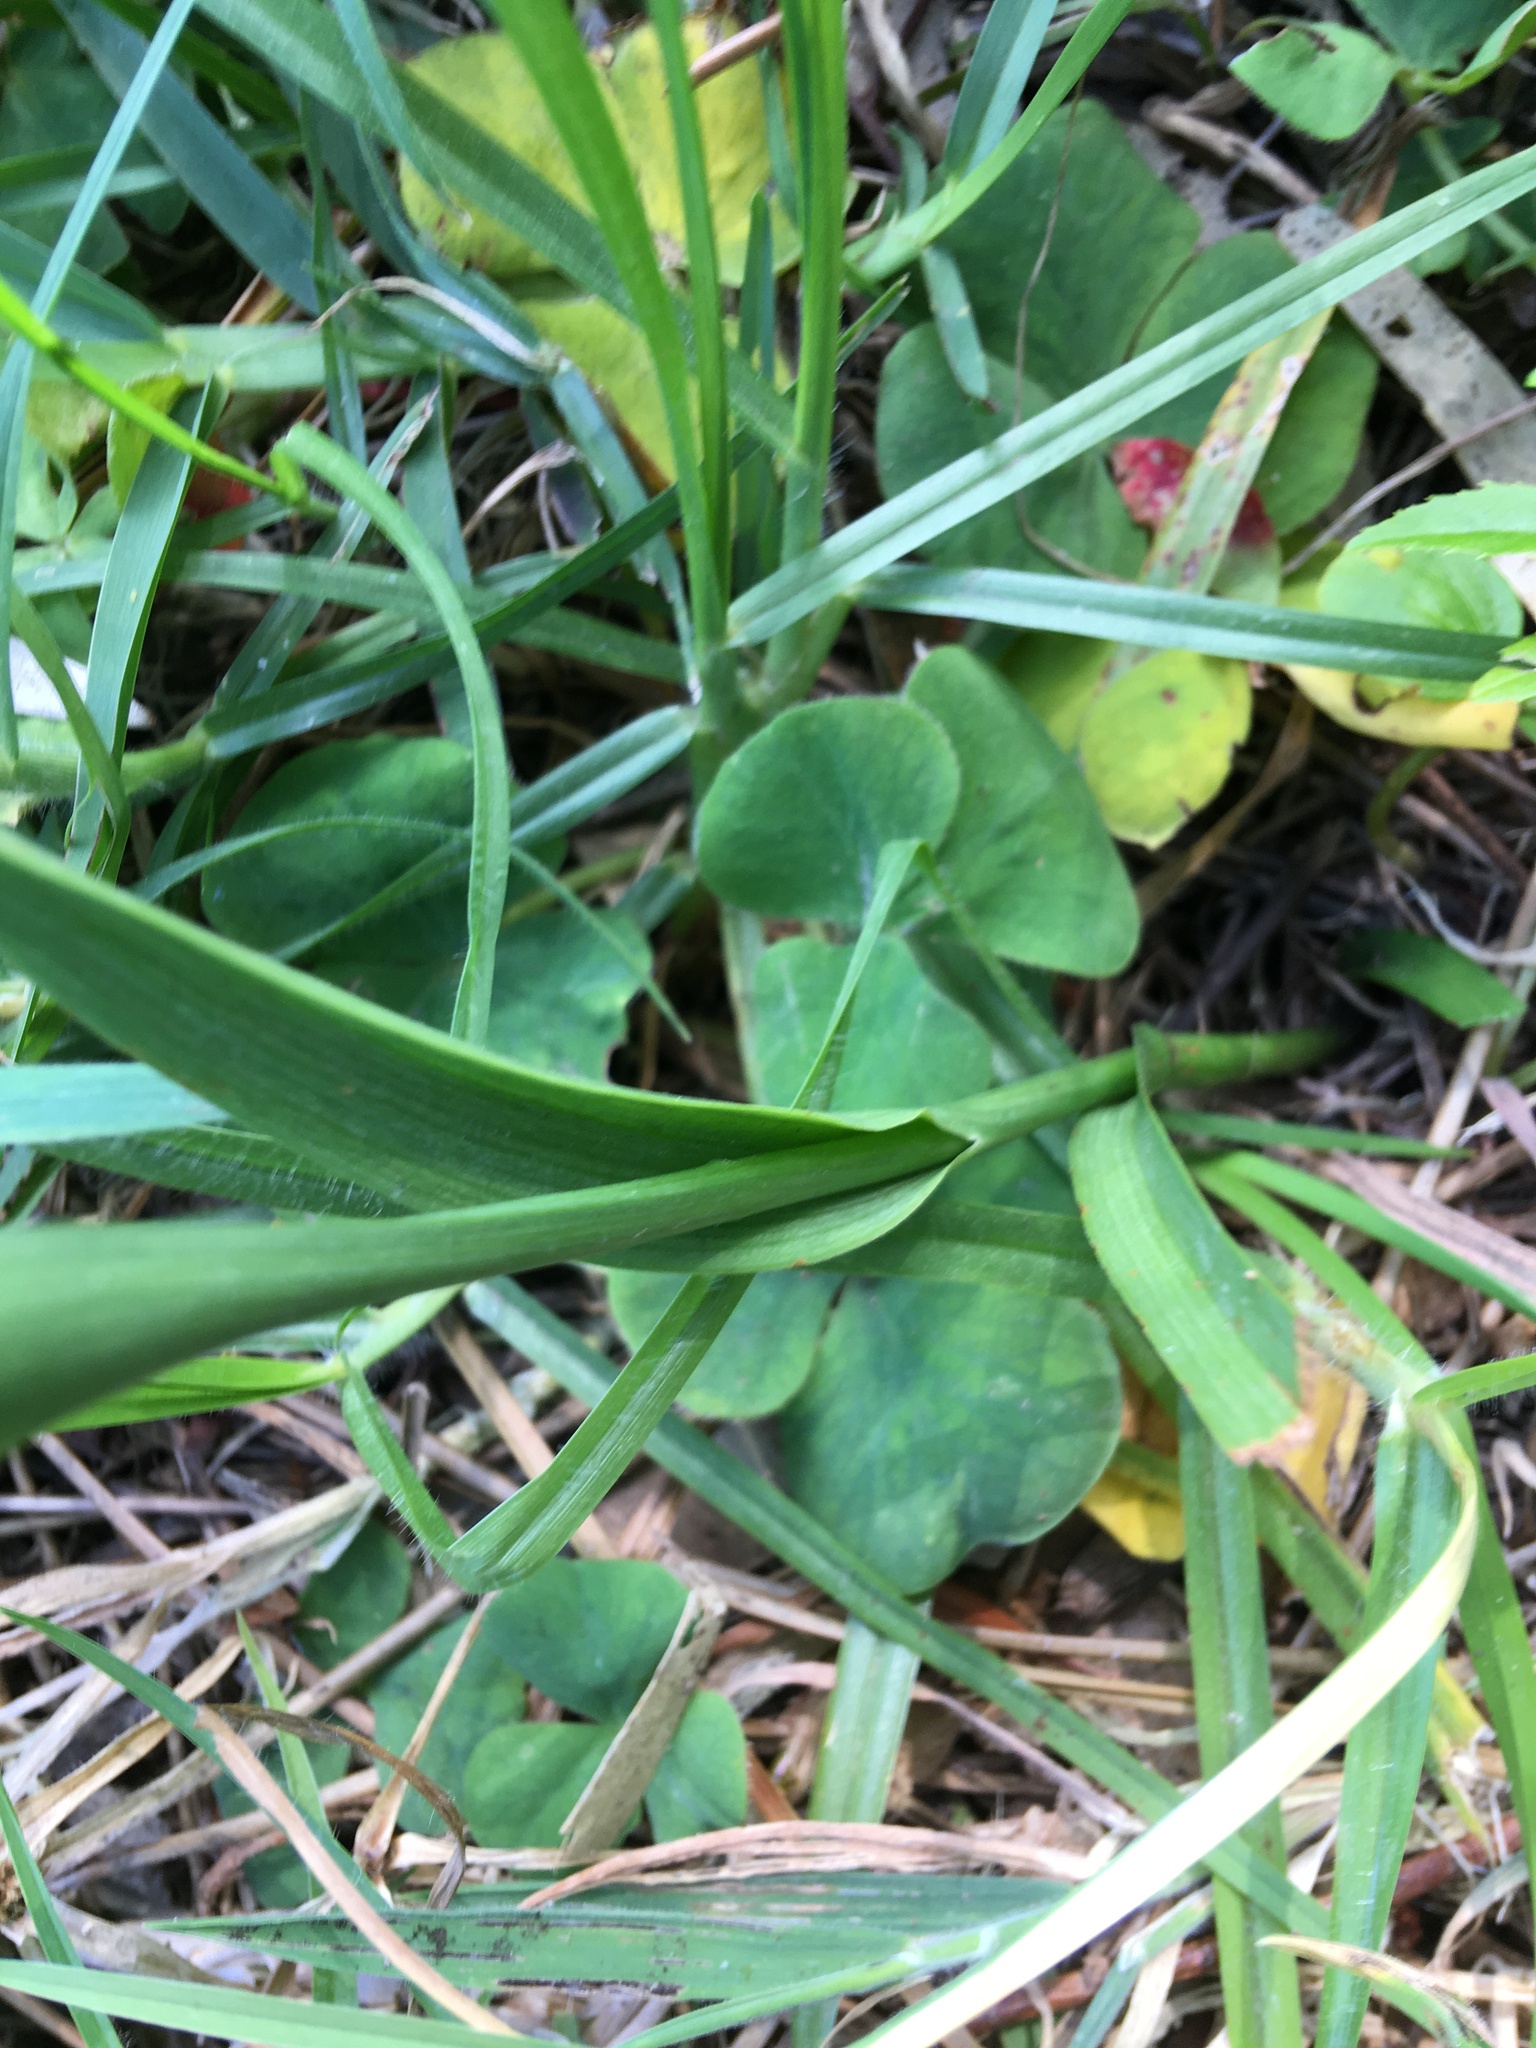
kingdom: Plantae
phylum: Tracheophyta
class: Liliopsida
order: Liliales
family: Colchicaceae
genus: Baeometra
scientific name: Baeometra uniflora
